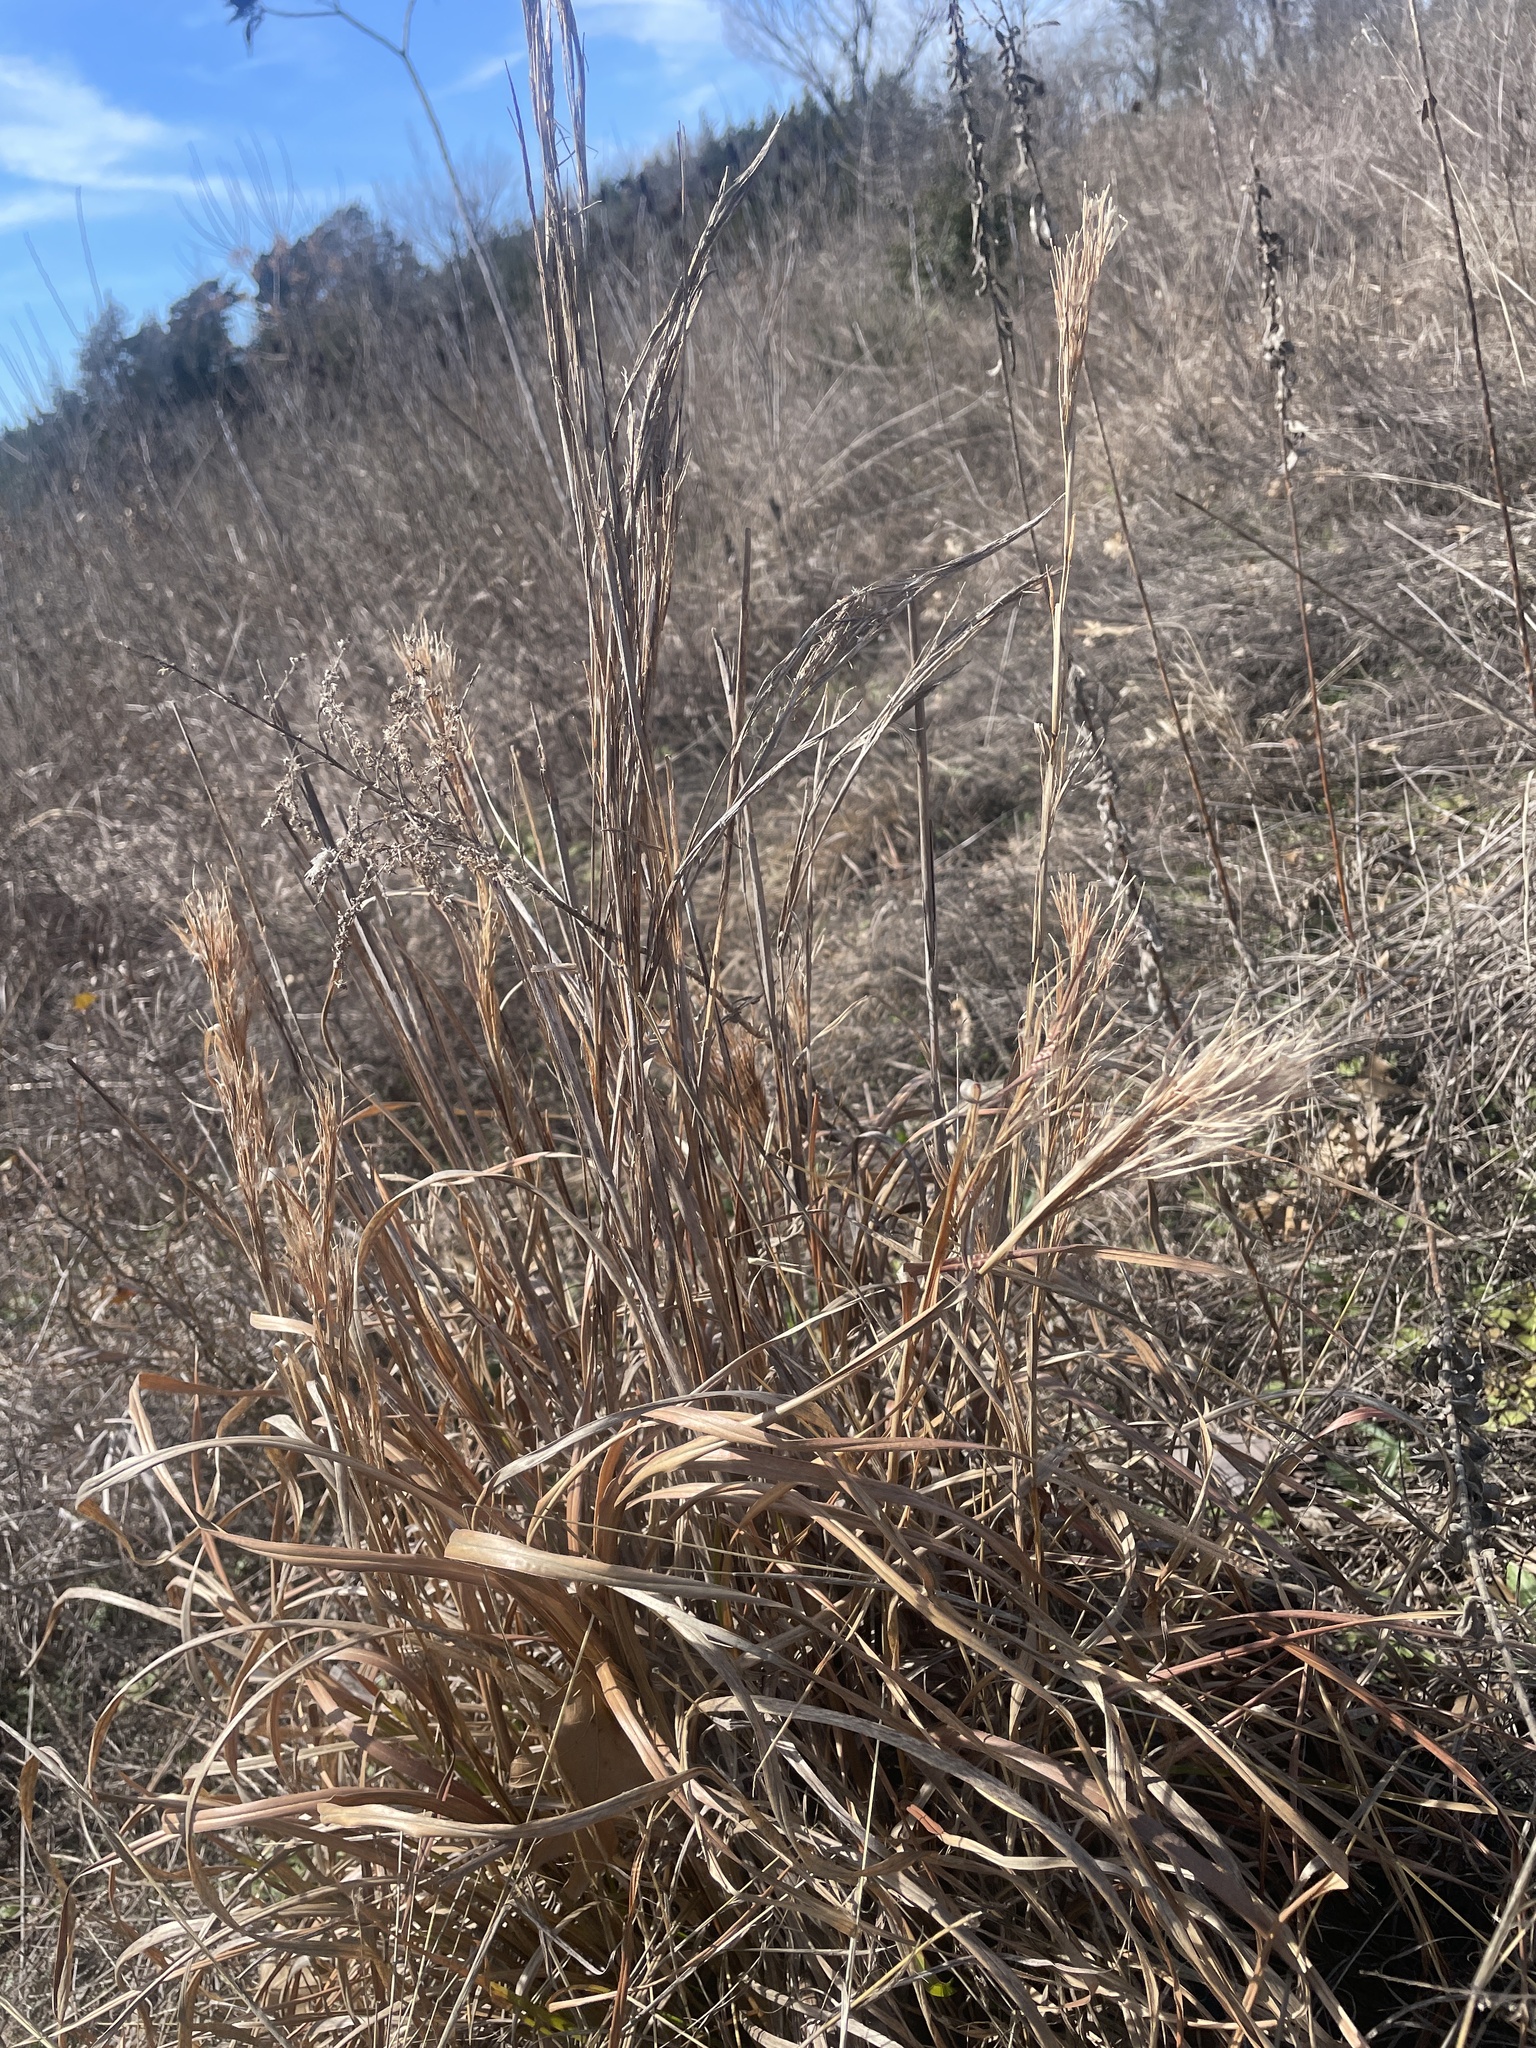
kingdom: Plantae
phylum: Tracheophyta
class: Liliopsida
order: Poales
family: Poaceae
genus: Andropogon
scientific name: Andropogon tenuispatheus
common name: Bushy bluestem
